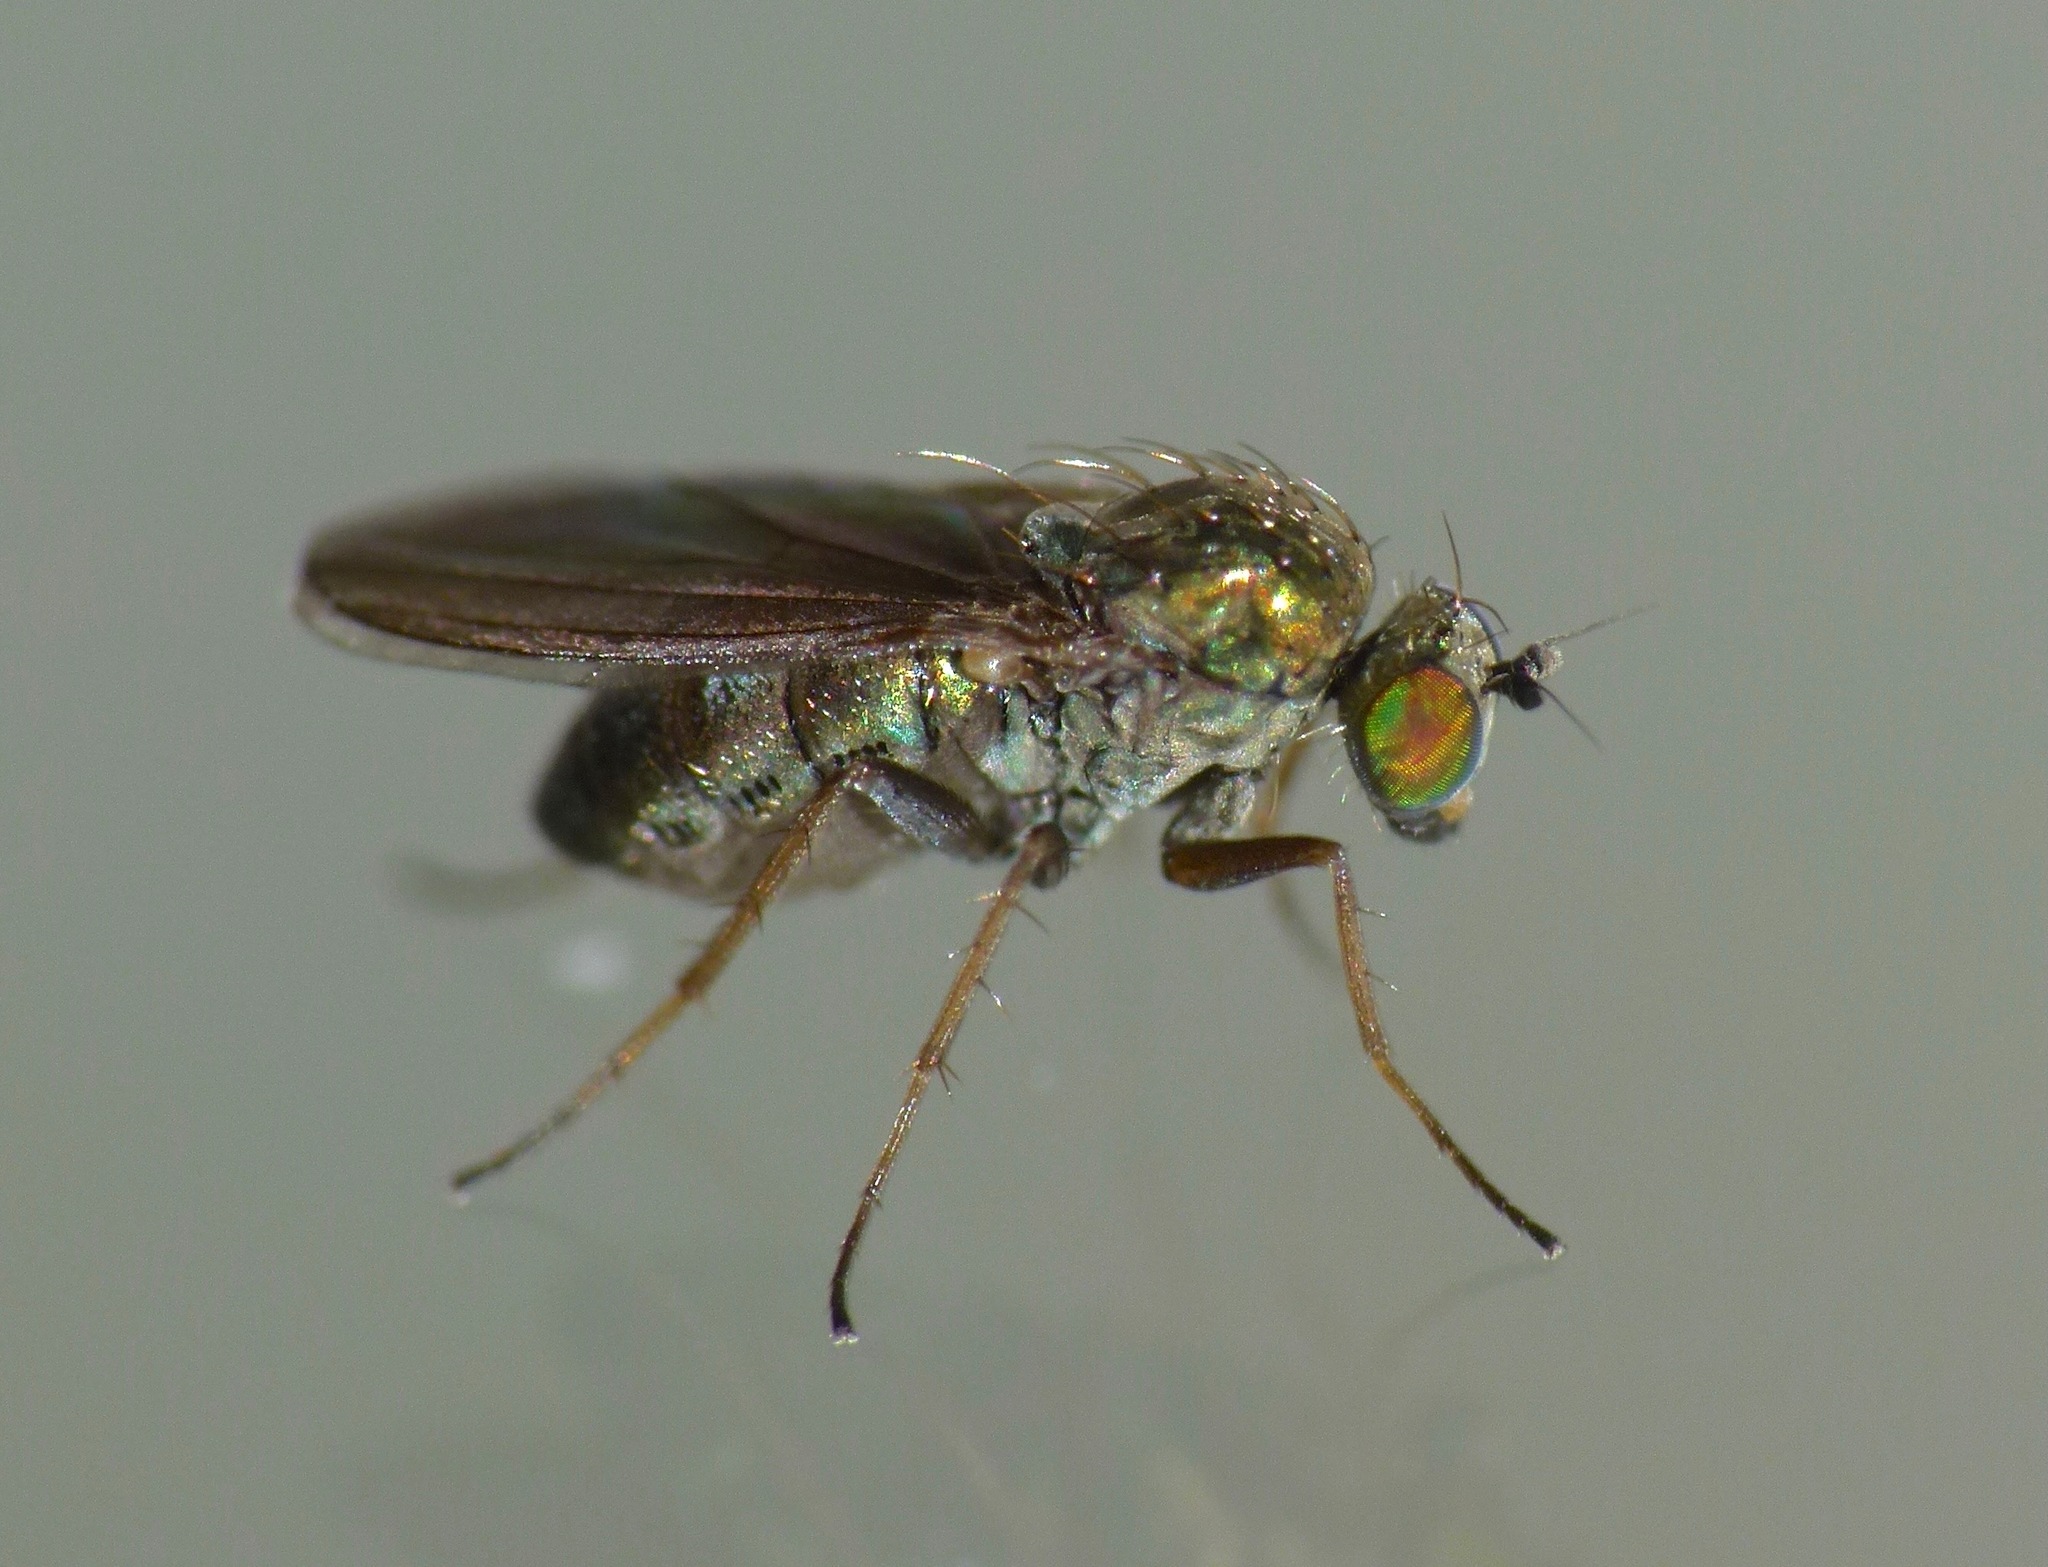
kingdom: Animalia
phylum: Arthropoda
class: Insecta
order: Diptera
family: Dolichopodidae
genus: Chrysotimus
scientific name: Chrysotimus scutatus
